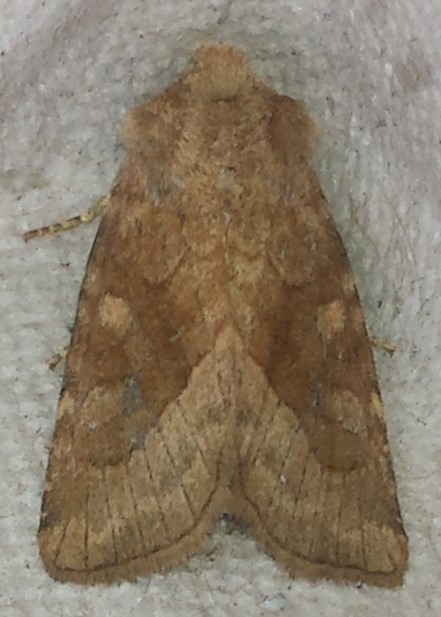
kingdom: Animalia
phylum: Arthropoda
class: Insecta
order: Lepidoptera
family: Noctuidae
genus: Lacinipolia
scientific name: Lacinipolia lorea
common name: Bridled arches moth
